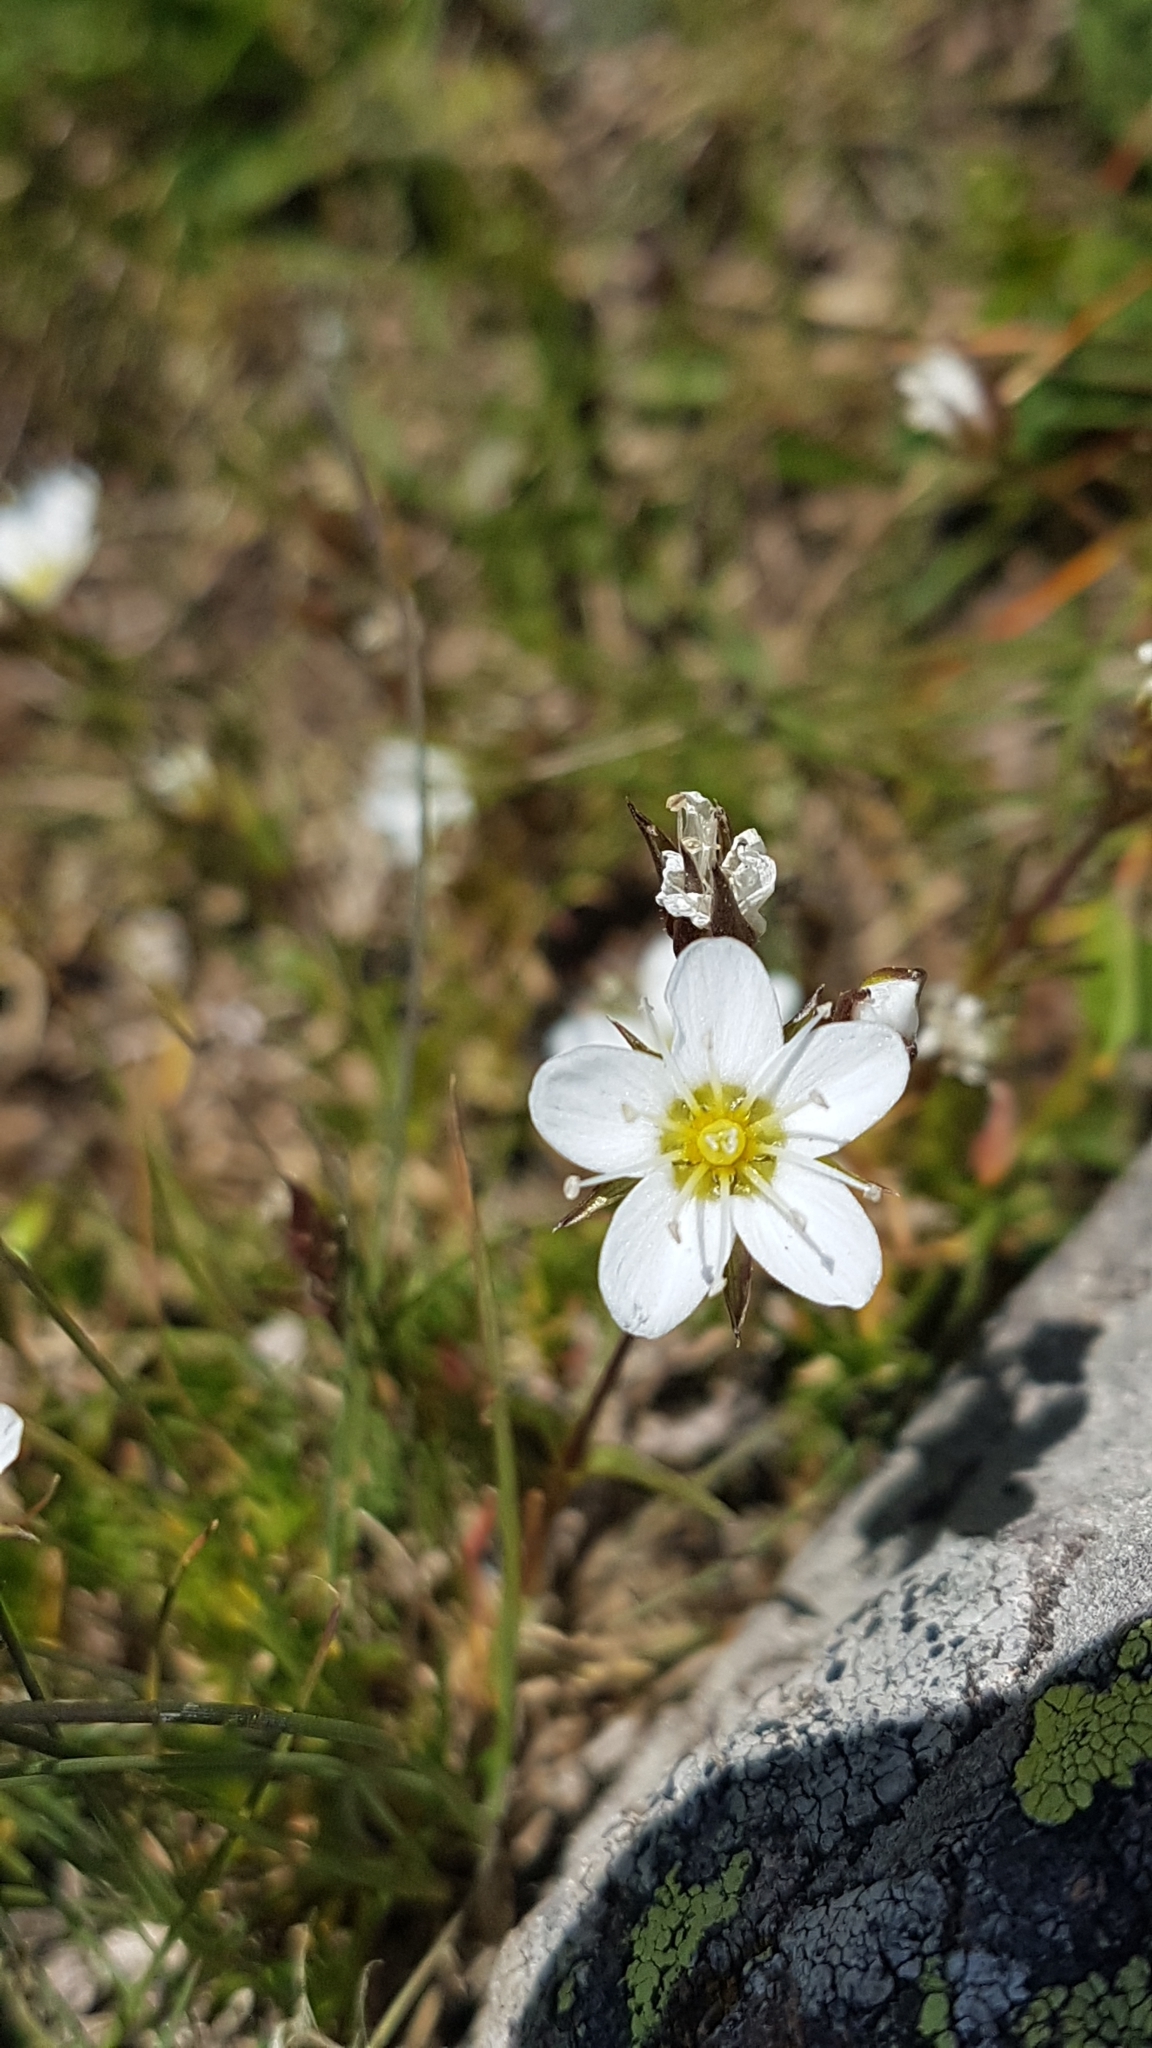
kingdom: Plantae
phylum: Tracheophyta
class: Magnoliopsida
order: Saxifragales
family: Saxifragaceae
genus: Saxifraga
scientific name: Saxifraga paniculata
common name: Livelong saxifrage
